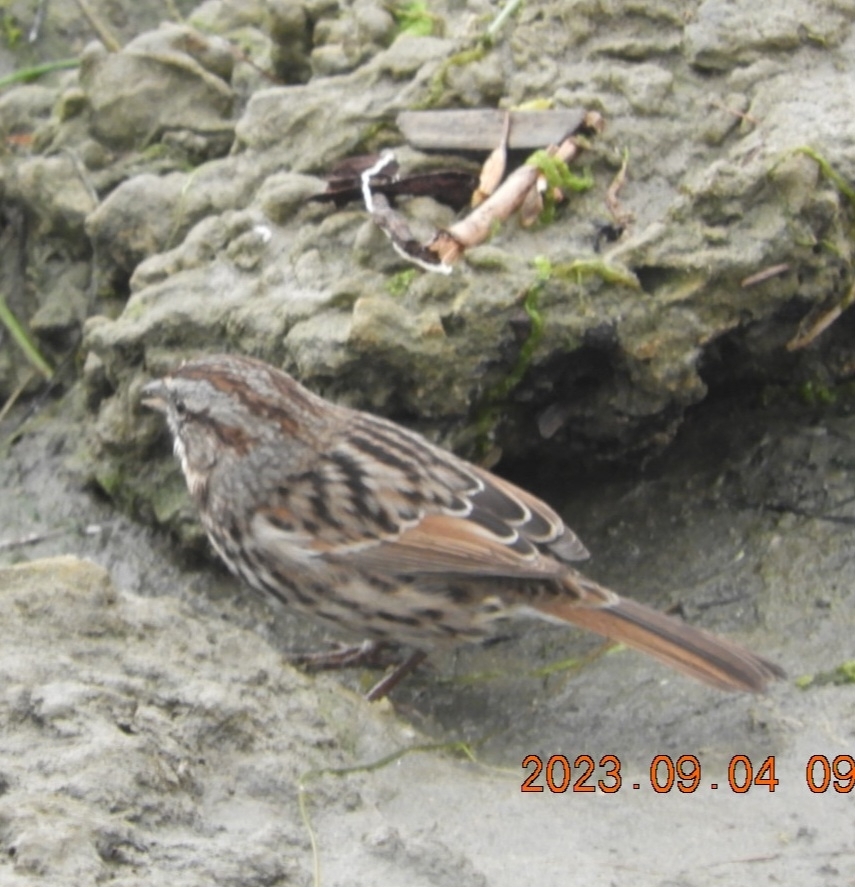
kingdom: Animalia
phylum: Chordata
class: Aves
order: Passeriformes
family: Passerellidae
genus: Melospiza
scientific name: Melospiza melodia
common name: Song sparrow
